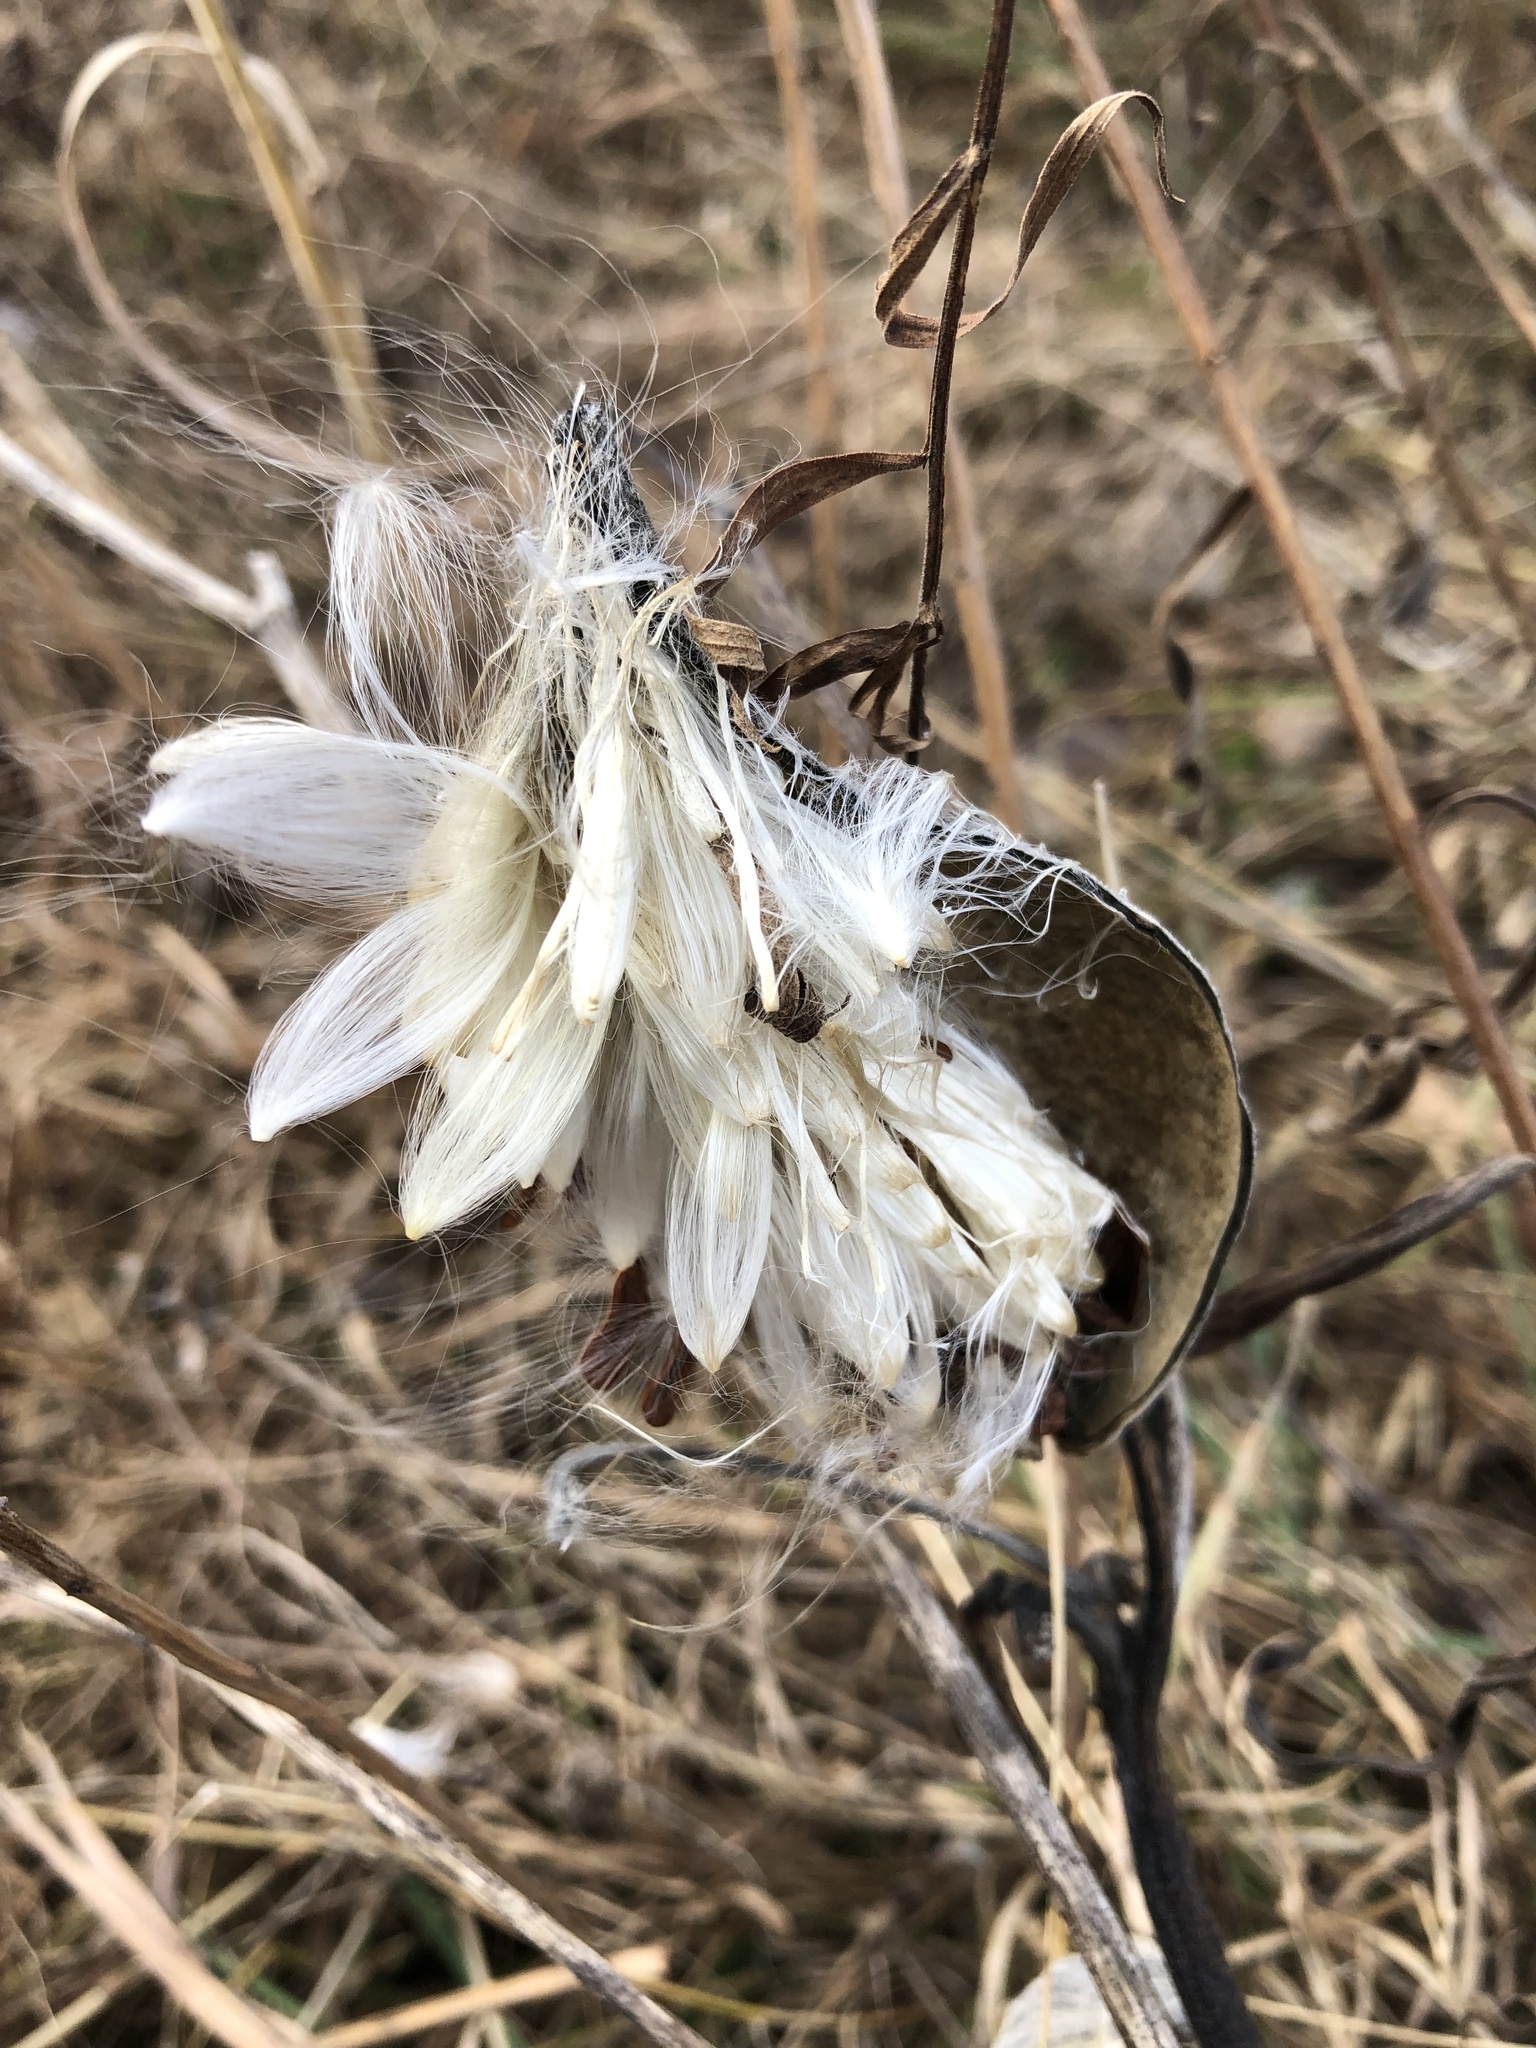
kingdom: Plantae
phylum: Tracheophyta
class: Magnoliopsida
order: Gentianales
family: Apocynaceae
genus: Asclepias
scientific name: Asclepias syriaca
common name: Common milkweed
